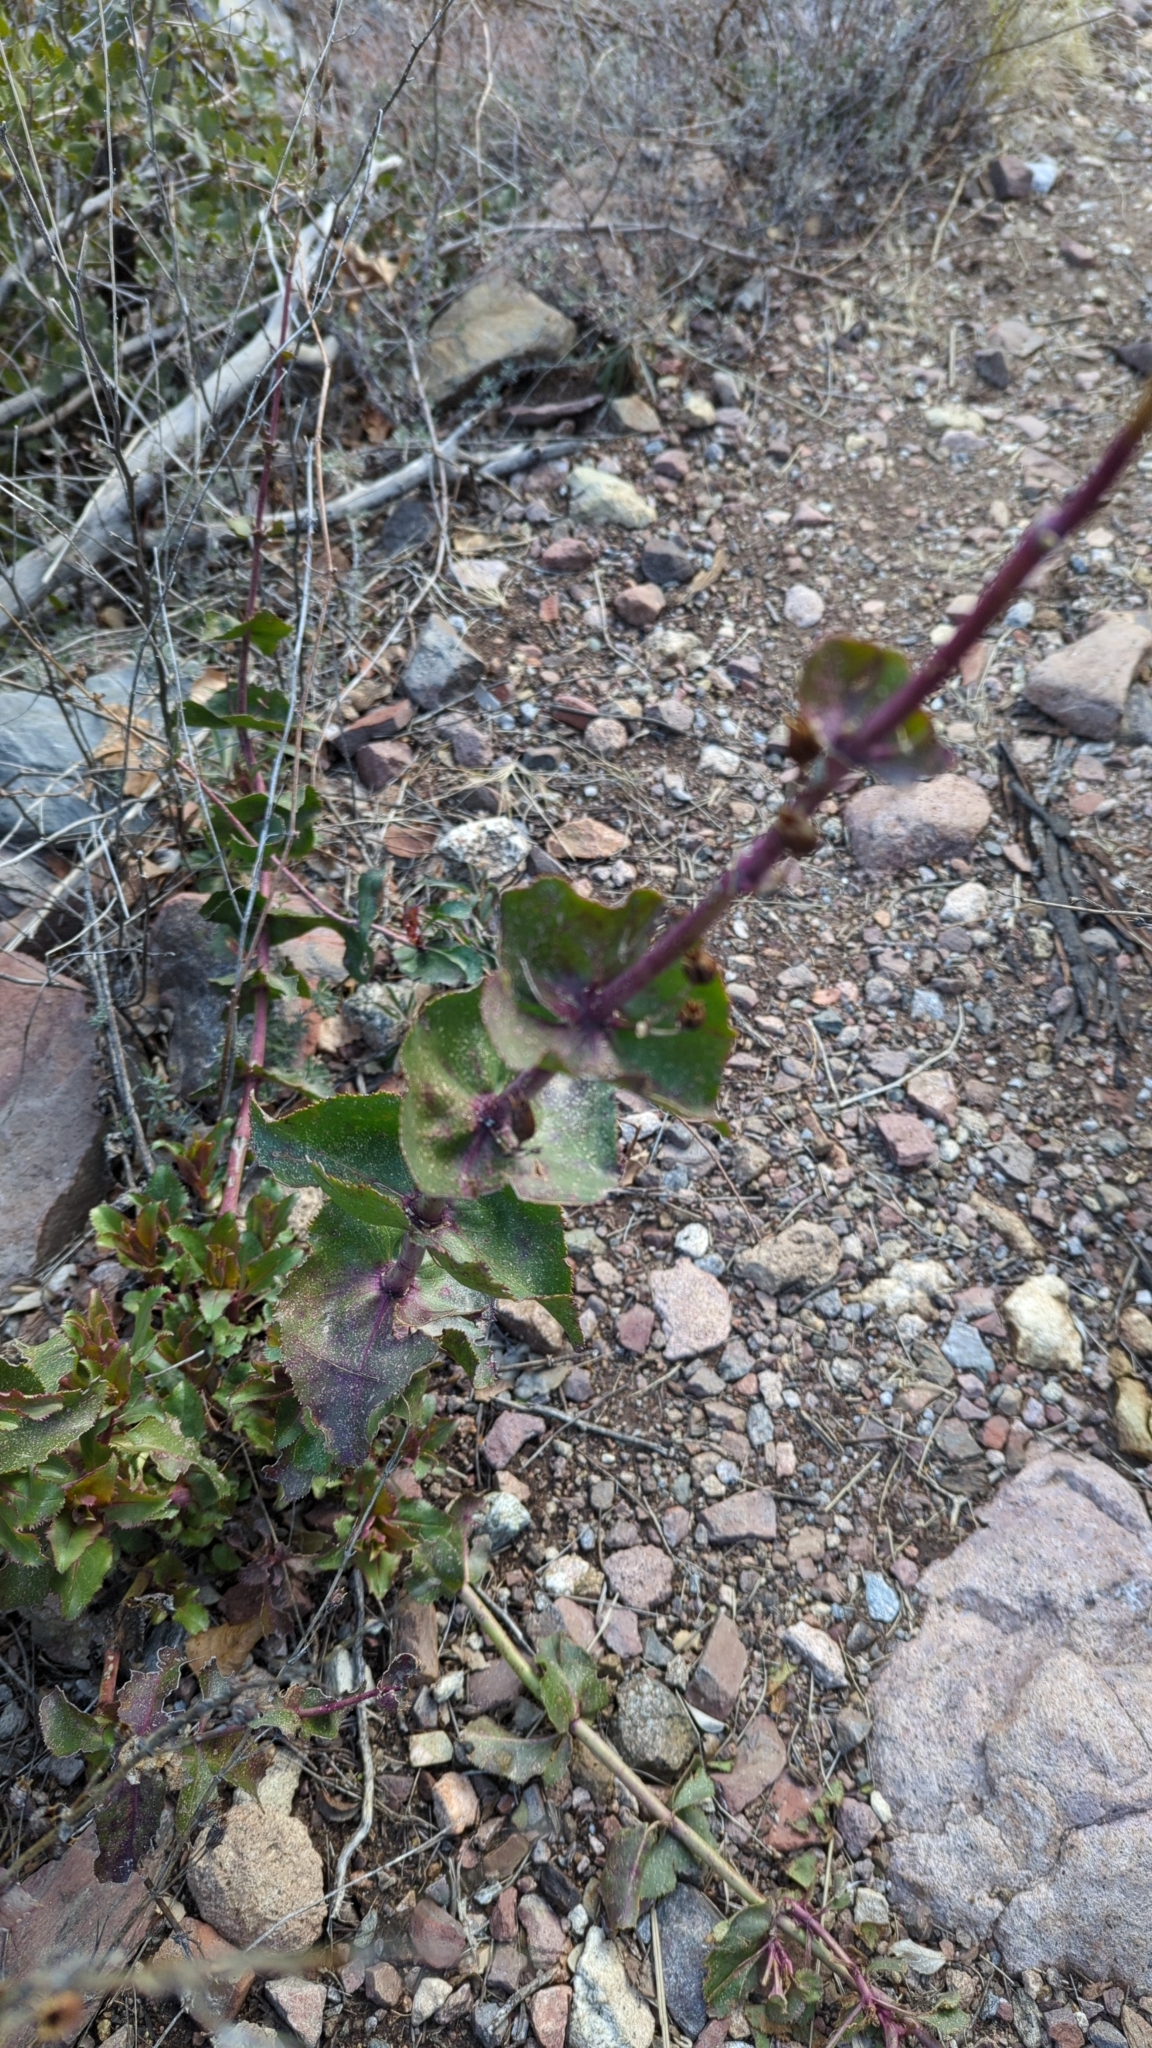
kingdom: Plantae
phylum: Tracheophyta
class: Magnoliopsida
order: Lamiales
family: Plantaginaceae
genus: Penstemon
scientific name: Penstemon pseudospectabilis
